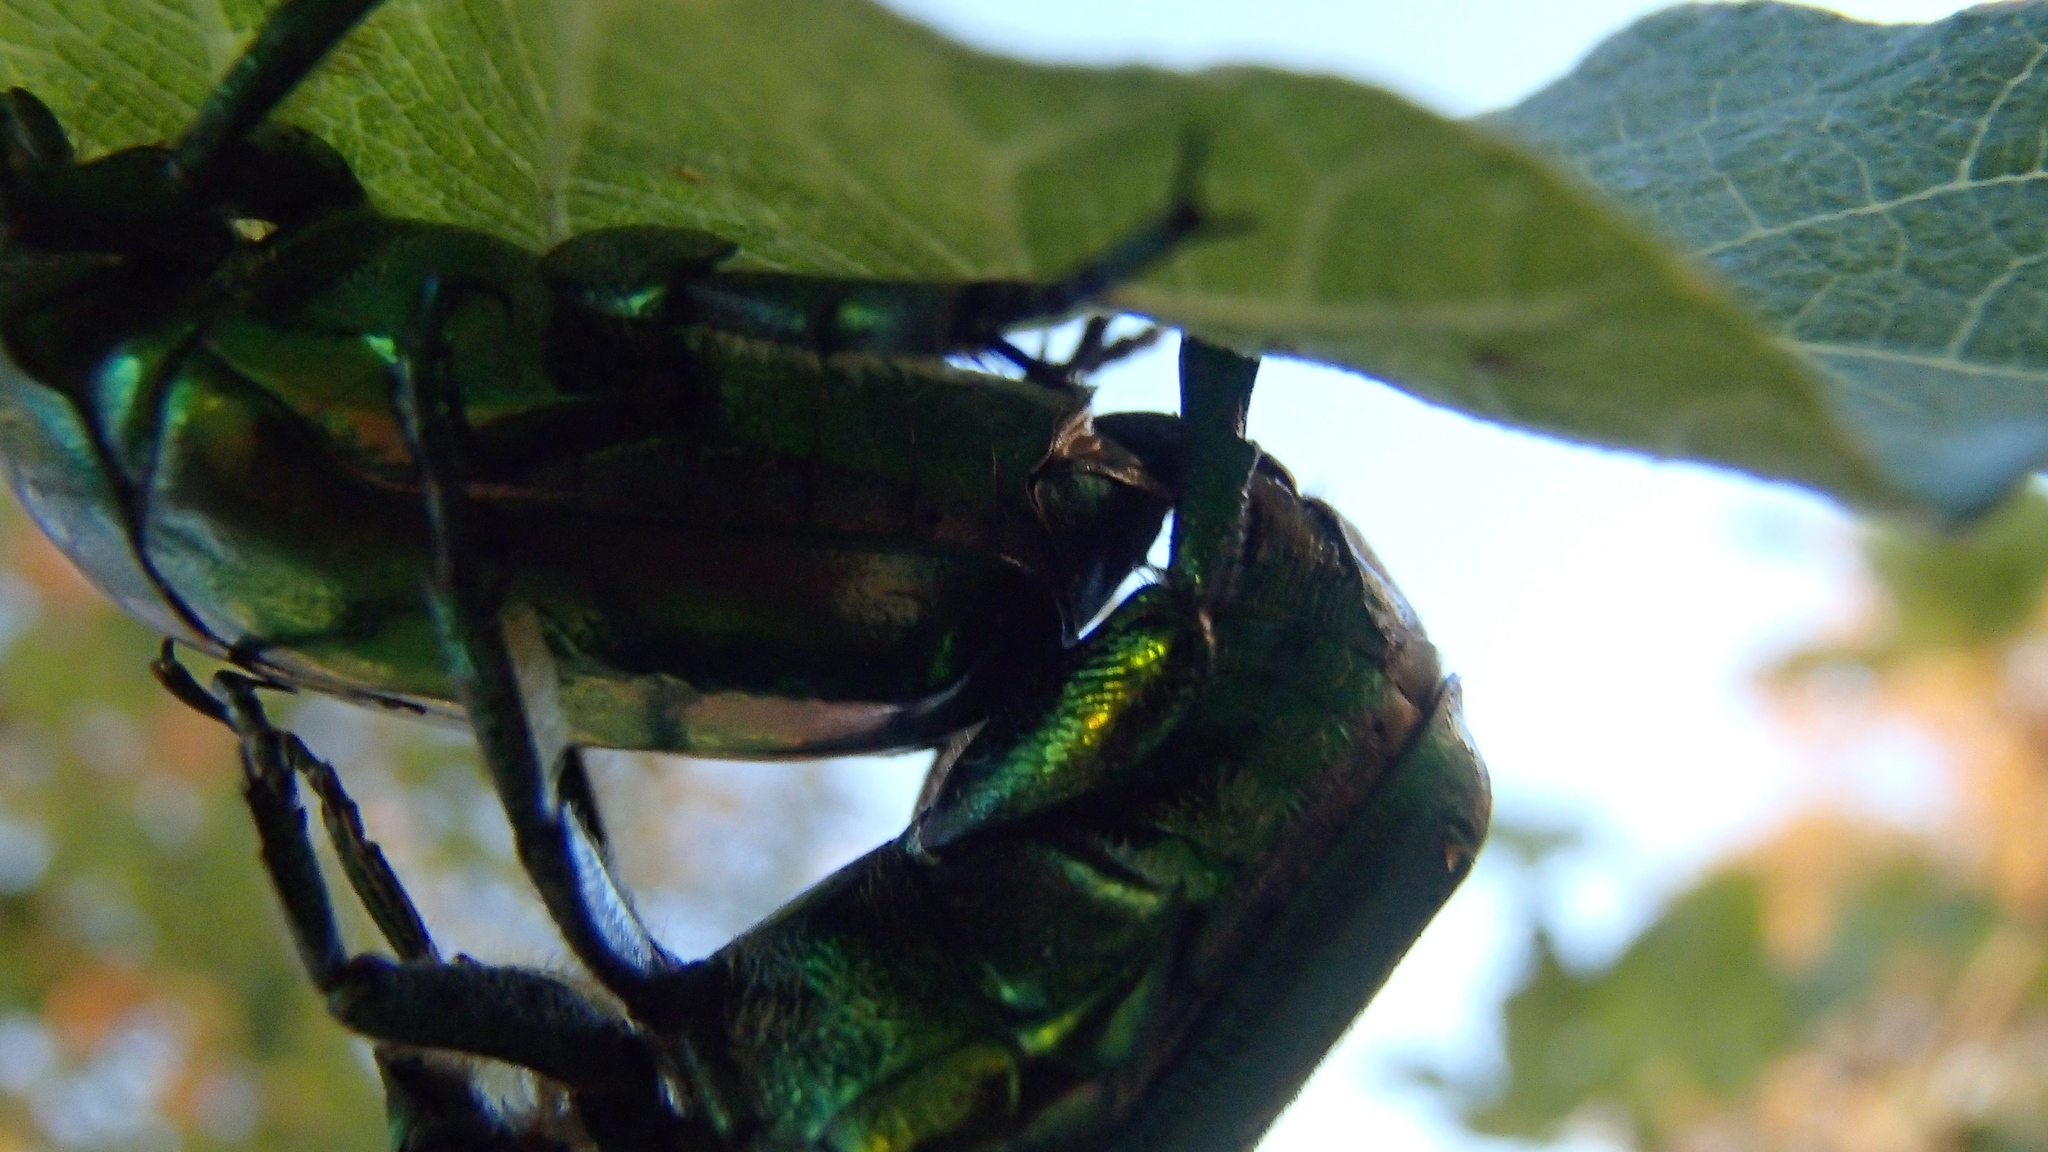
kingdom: Animalia
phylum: Arthropoda
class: Insecta
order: Coleoptera
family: Scarabaeidae
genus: Protaetia
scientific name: Protaetia speciosissima
